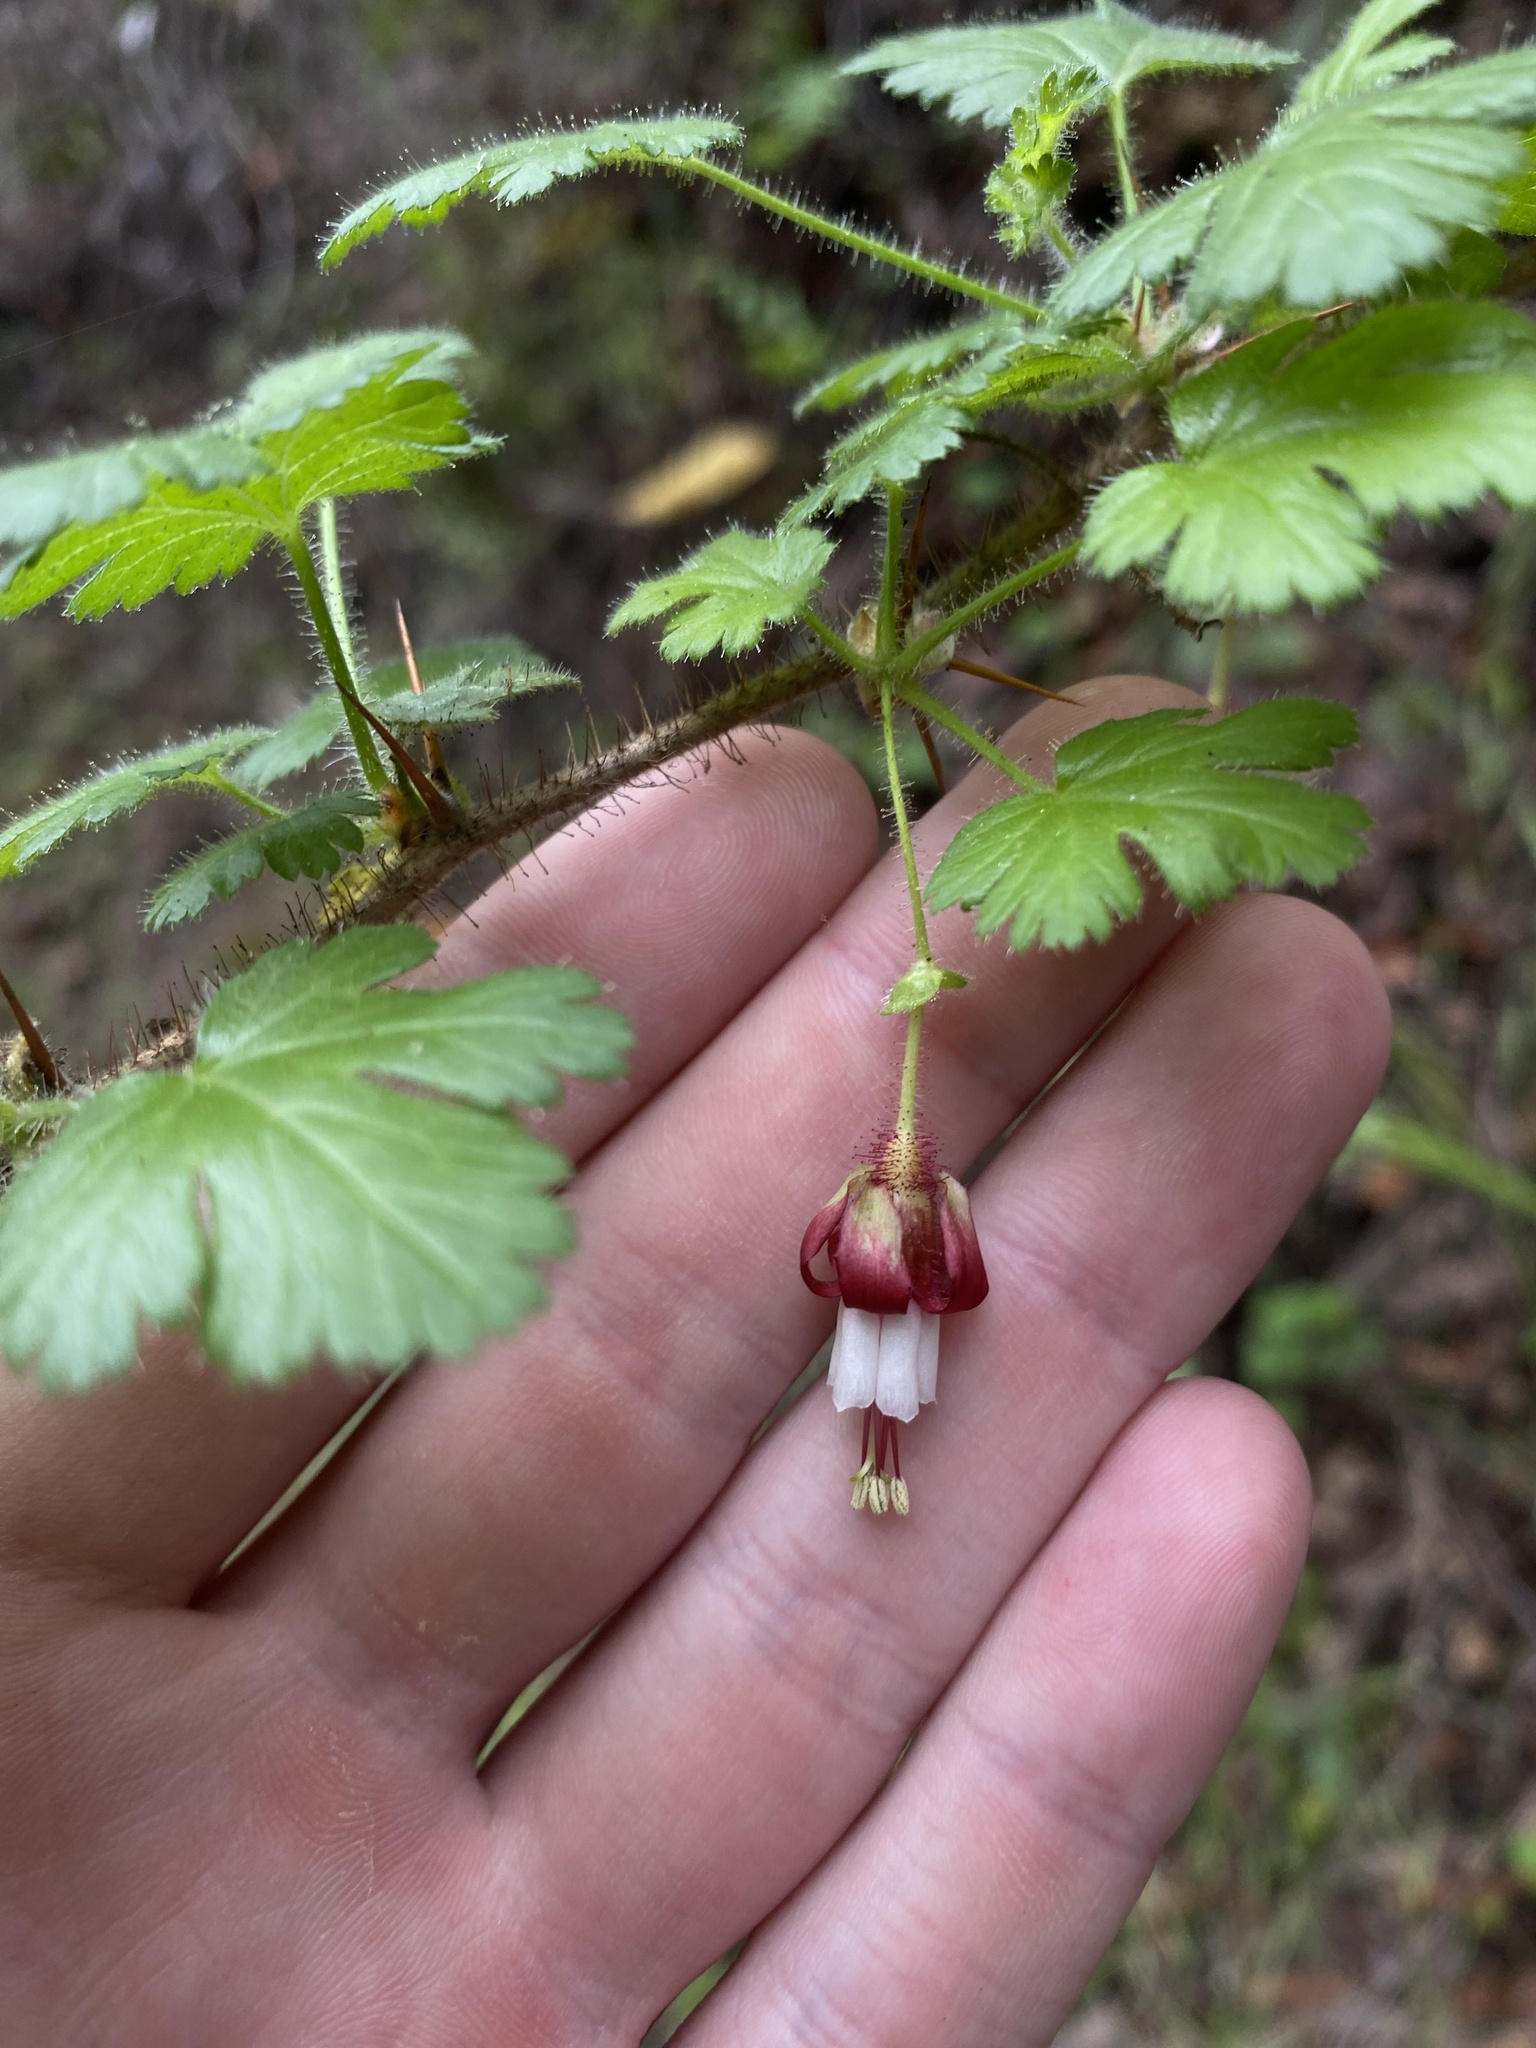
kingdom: Plantae
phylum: Tracheophyta
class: Magnoliopsida
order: Saxifragales
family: Grossulariaceae
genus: Ribes
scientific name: Ribes sericeum
